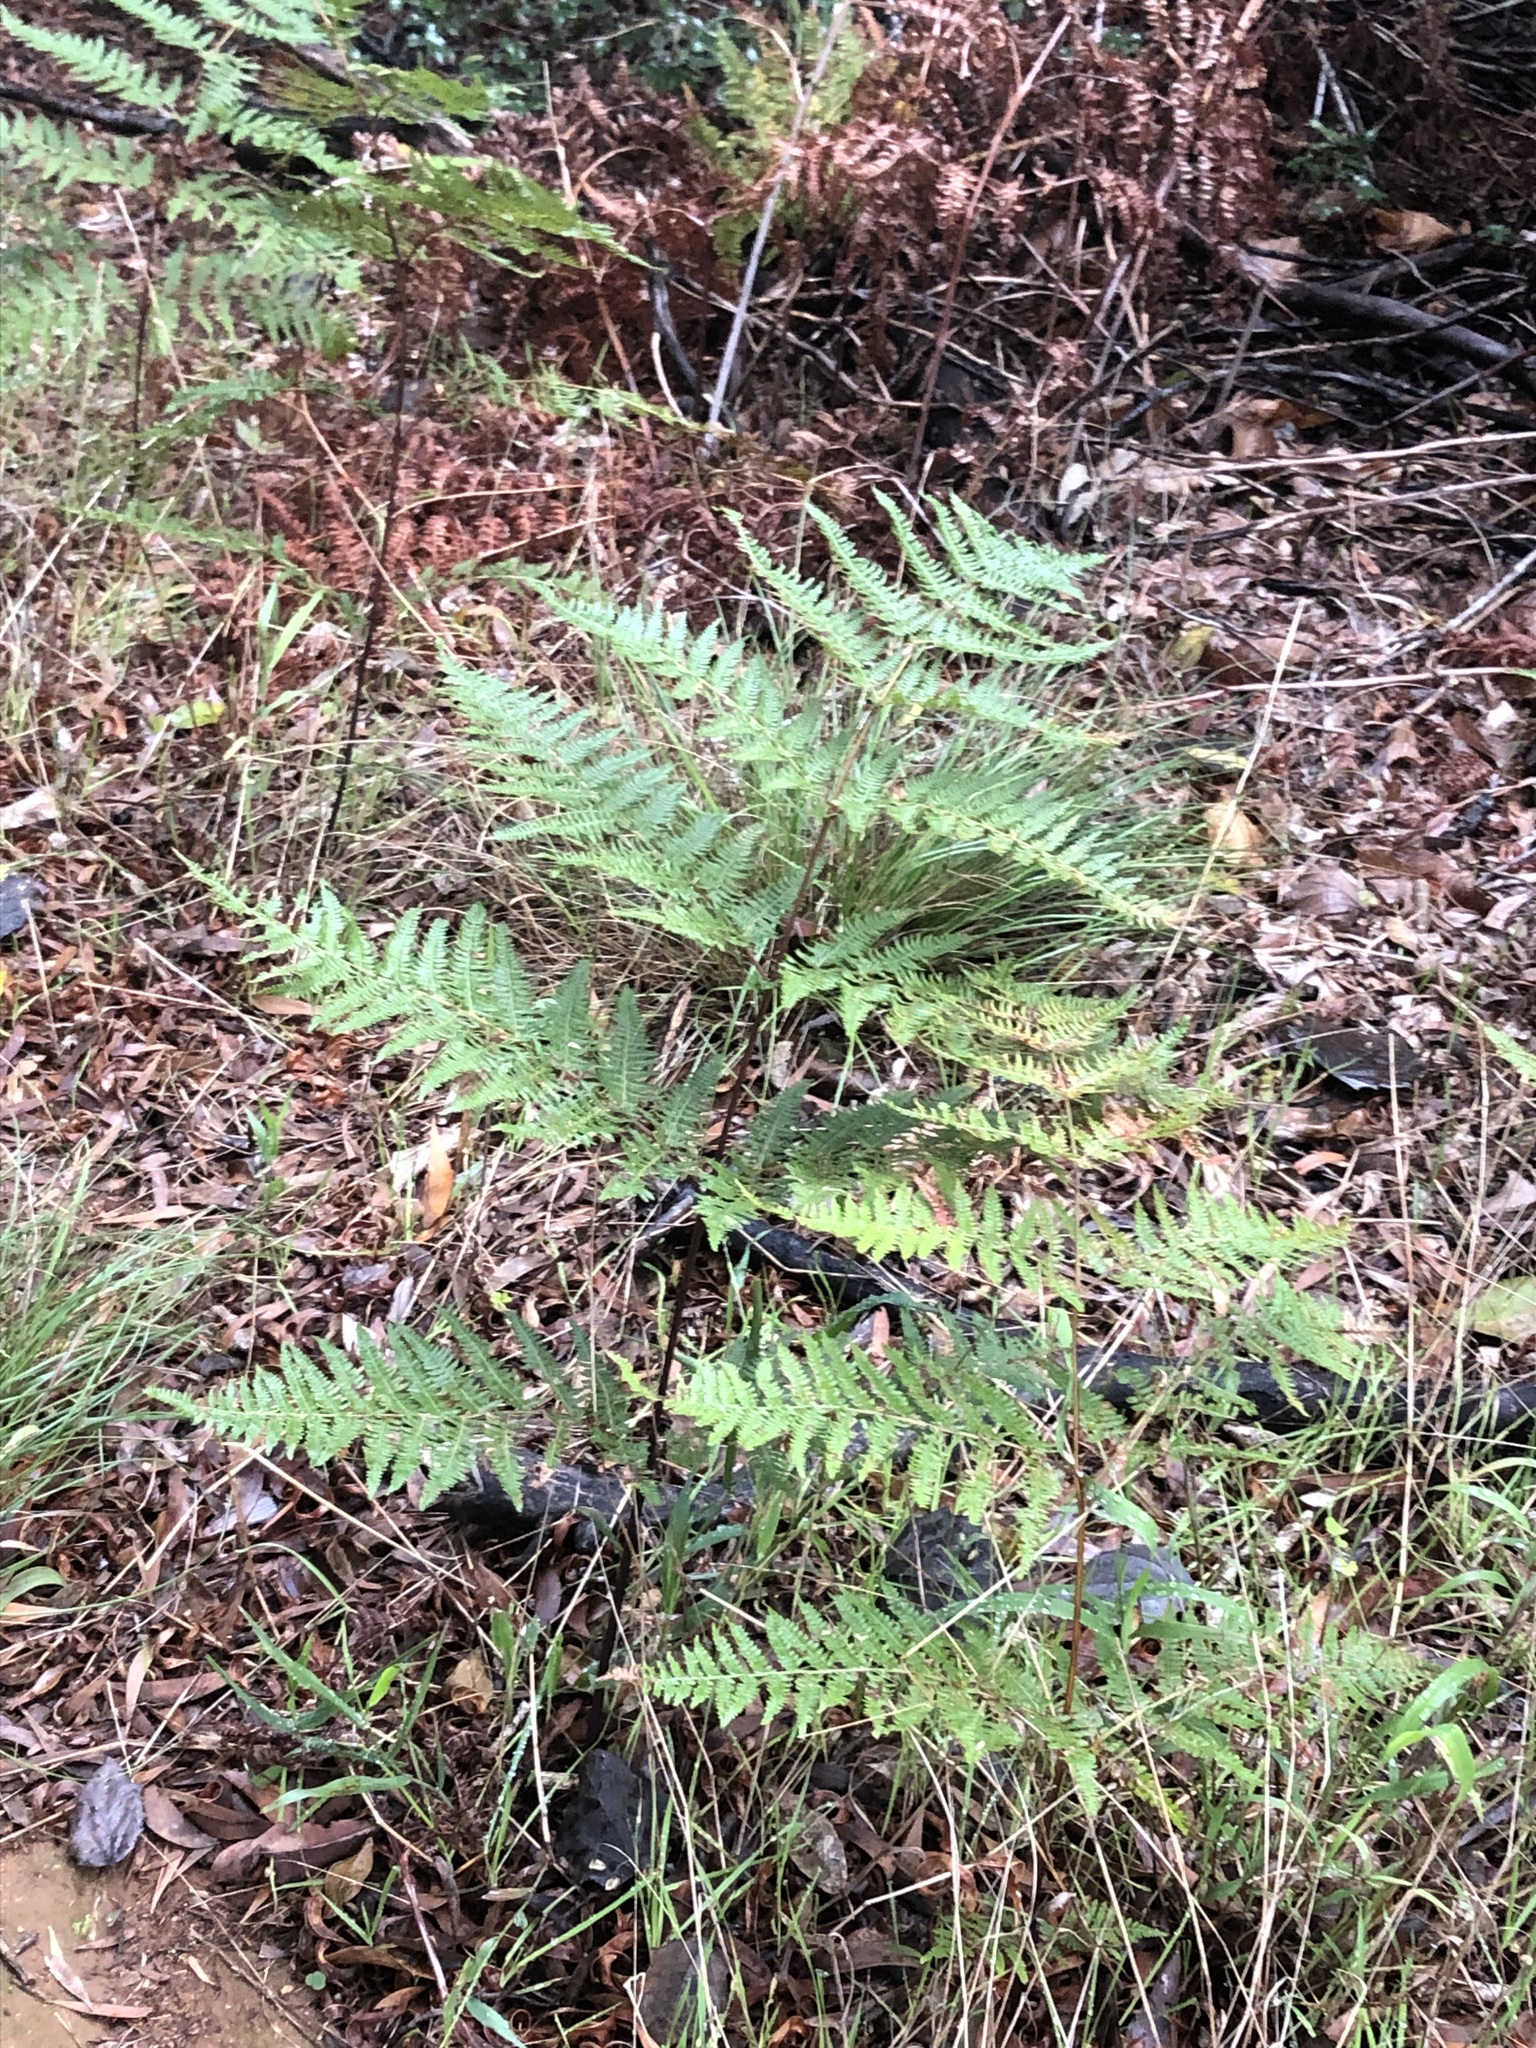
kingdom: Plantae
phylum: Tracheophyta
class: Polypodiopsida
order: Polypodiales
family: Dennstaedtiaceae
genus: Pteridium
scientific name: Pteridium aquilinum
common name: Bracken
